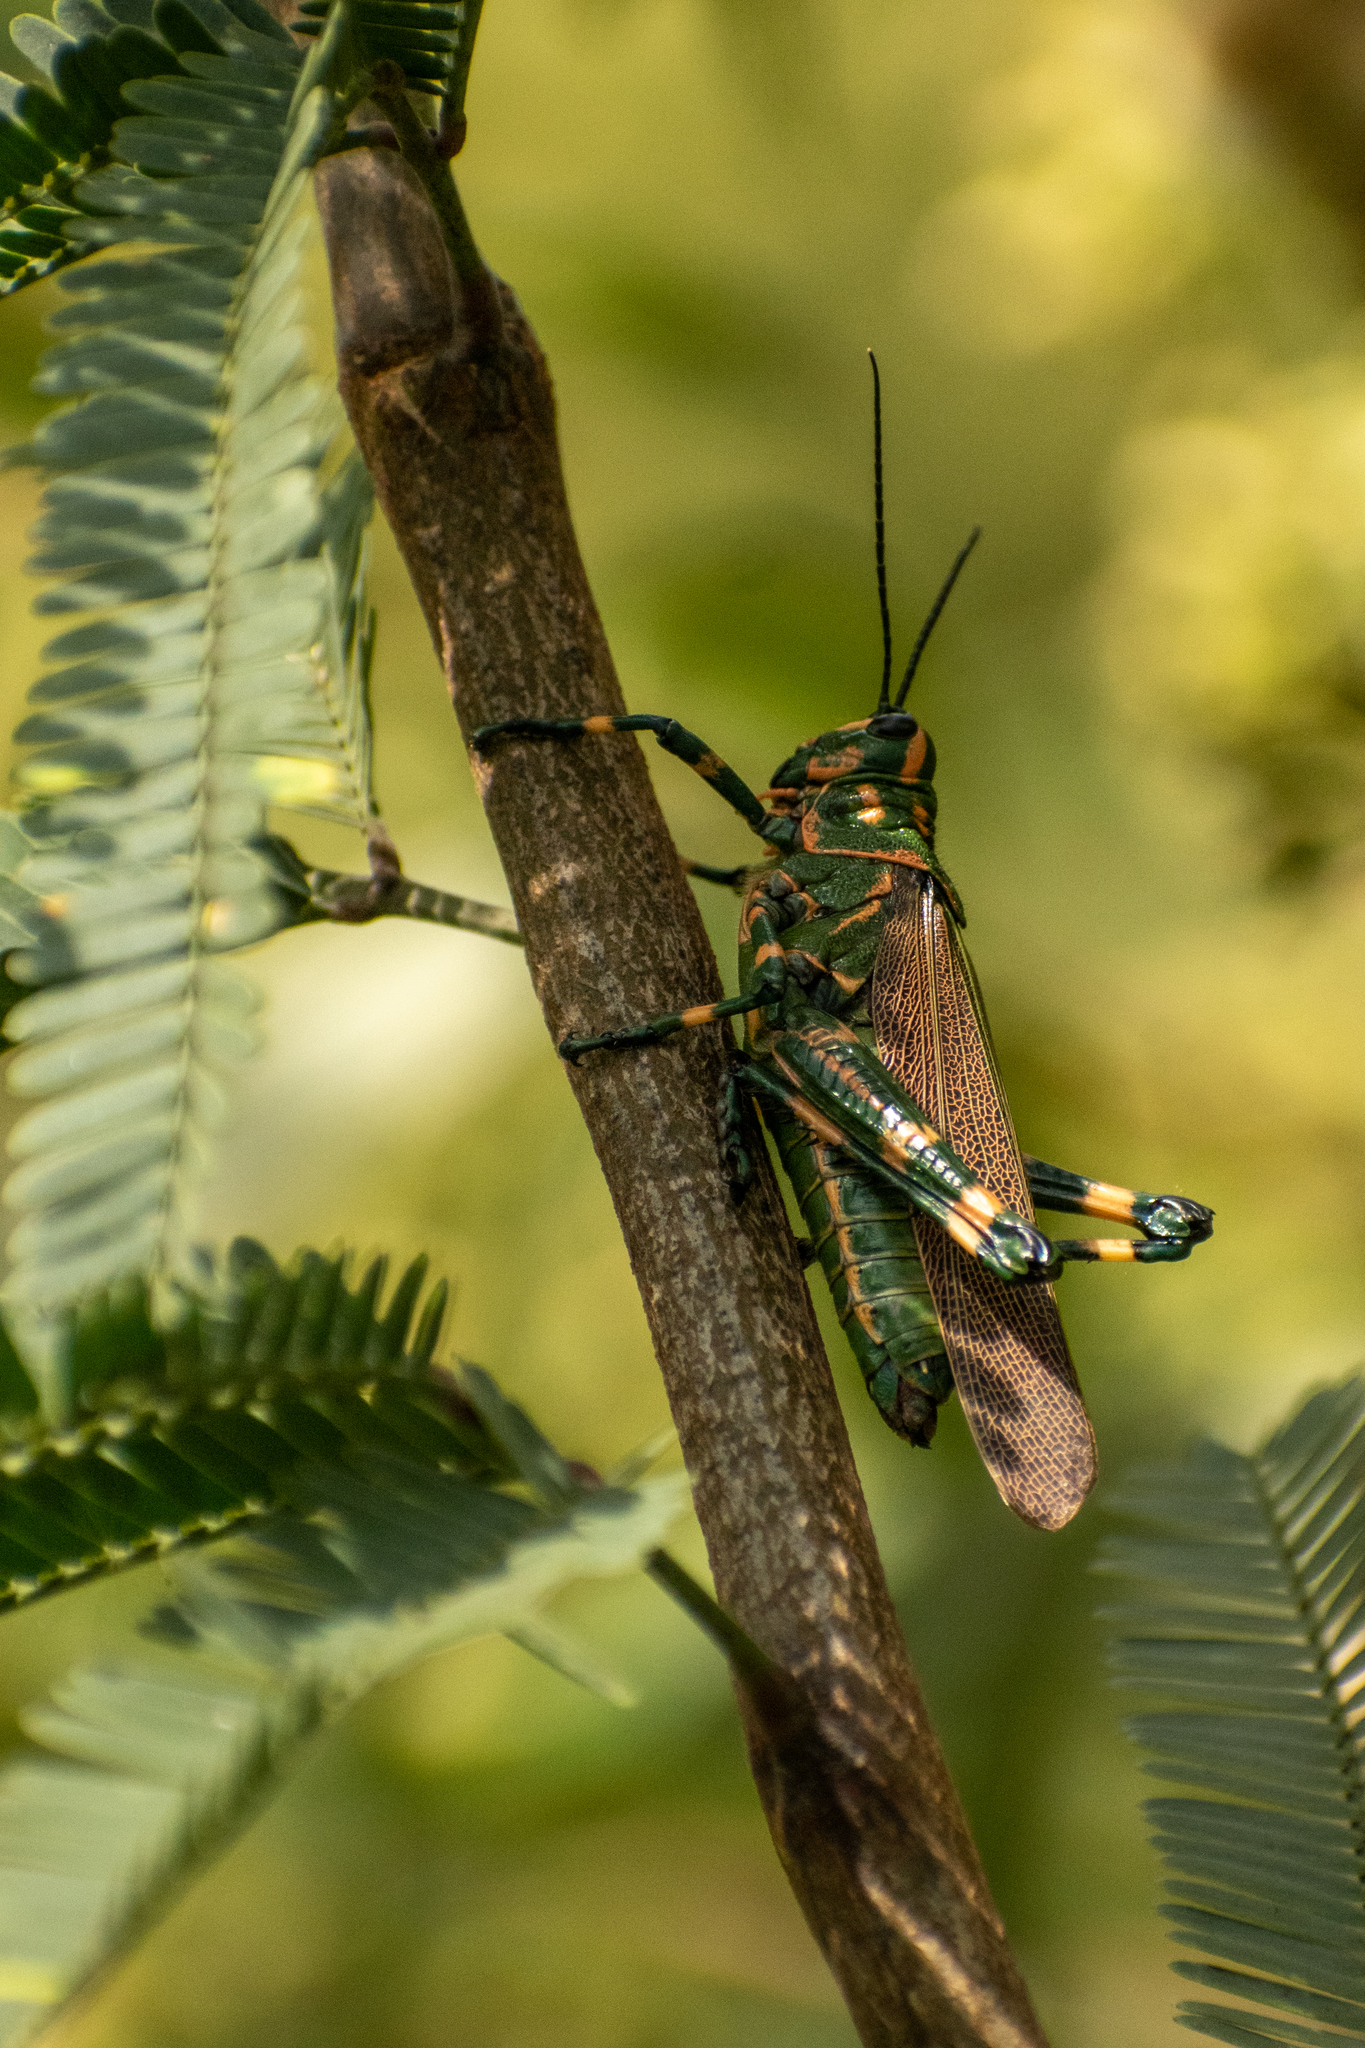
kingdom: Animalia
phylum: Arthropoda
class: Insecta
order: Orthoptera
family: Romaleidae
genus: Chromacris
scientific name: Chromacris speciosa
